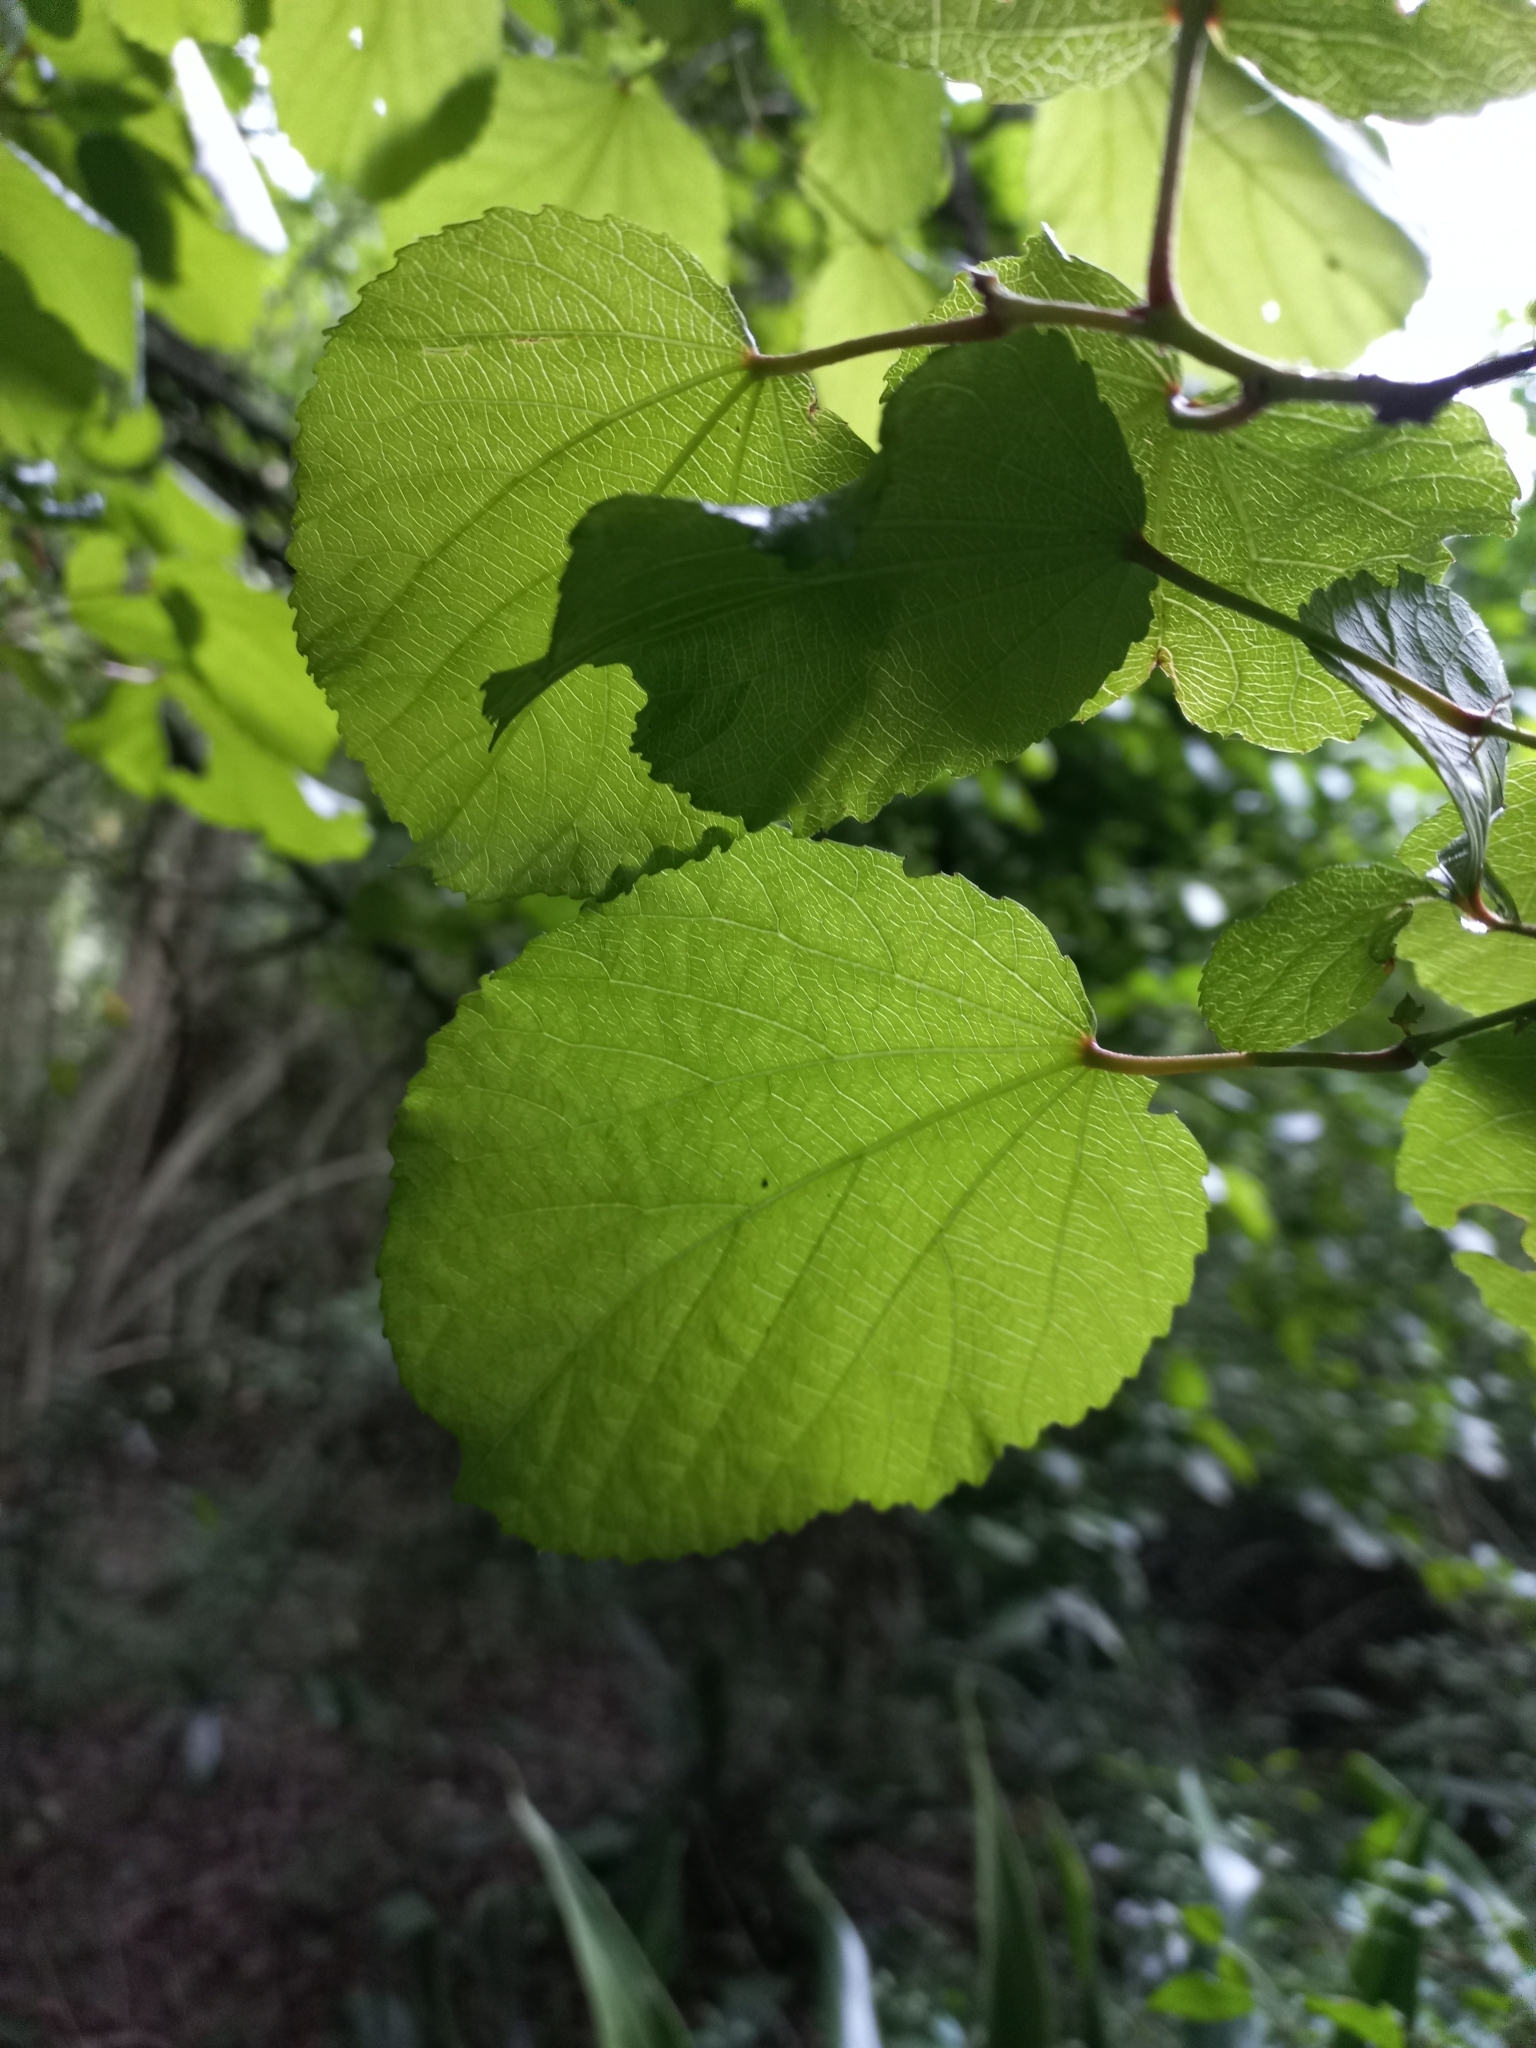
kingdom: Plantae
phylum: Tracheophyta
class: Magnoliopsida
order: Malpighiales
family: Salicaceae
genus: Trimeria
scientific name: Trimeria grandifolia
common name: Wild mulberry
